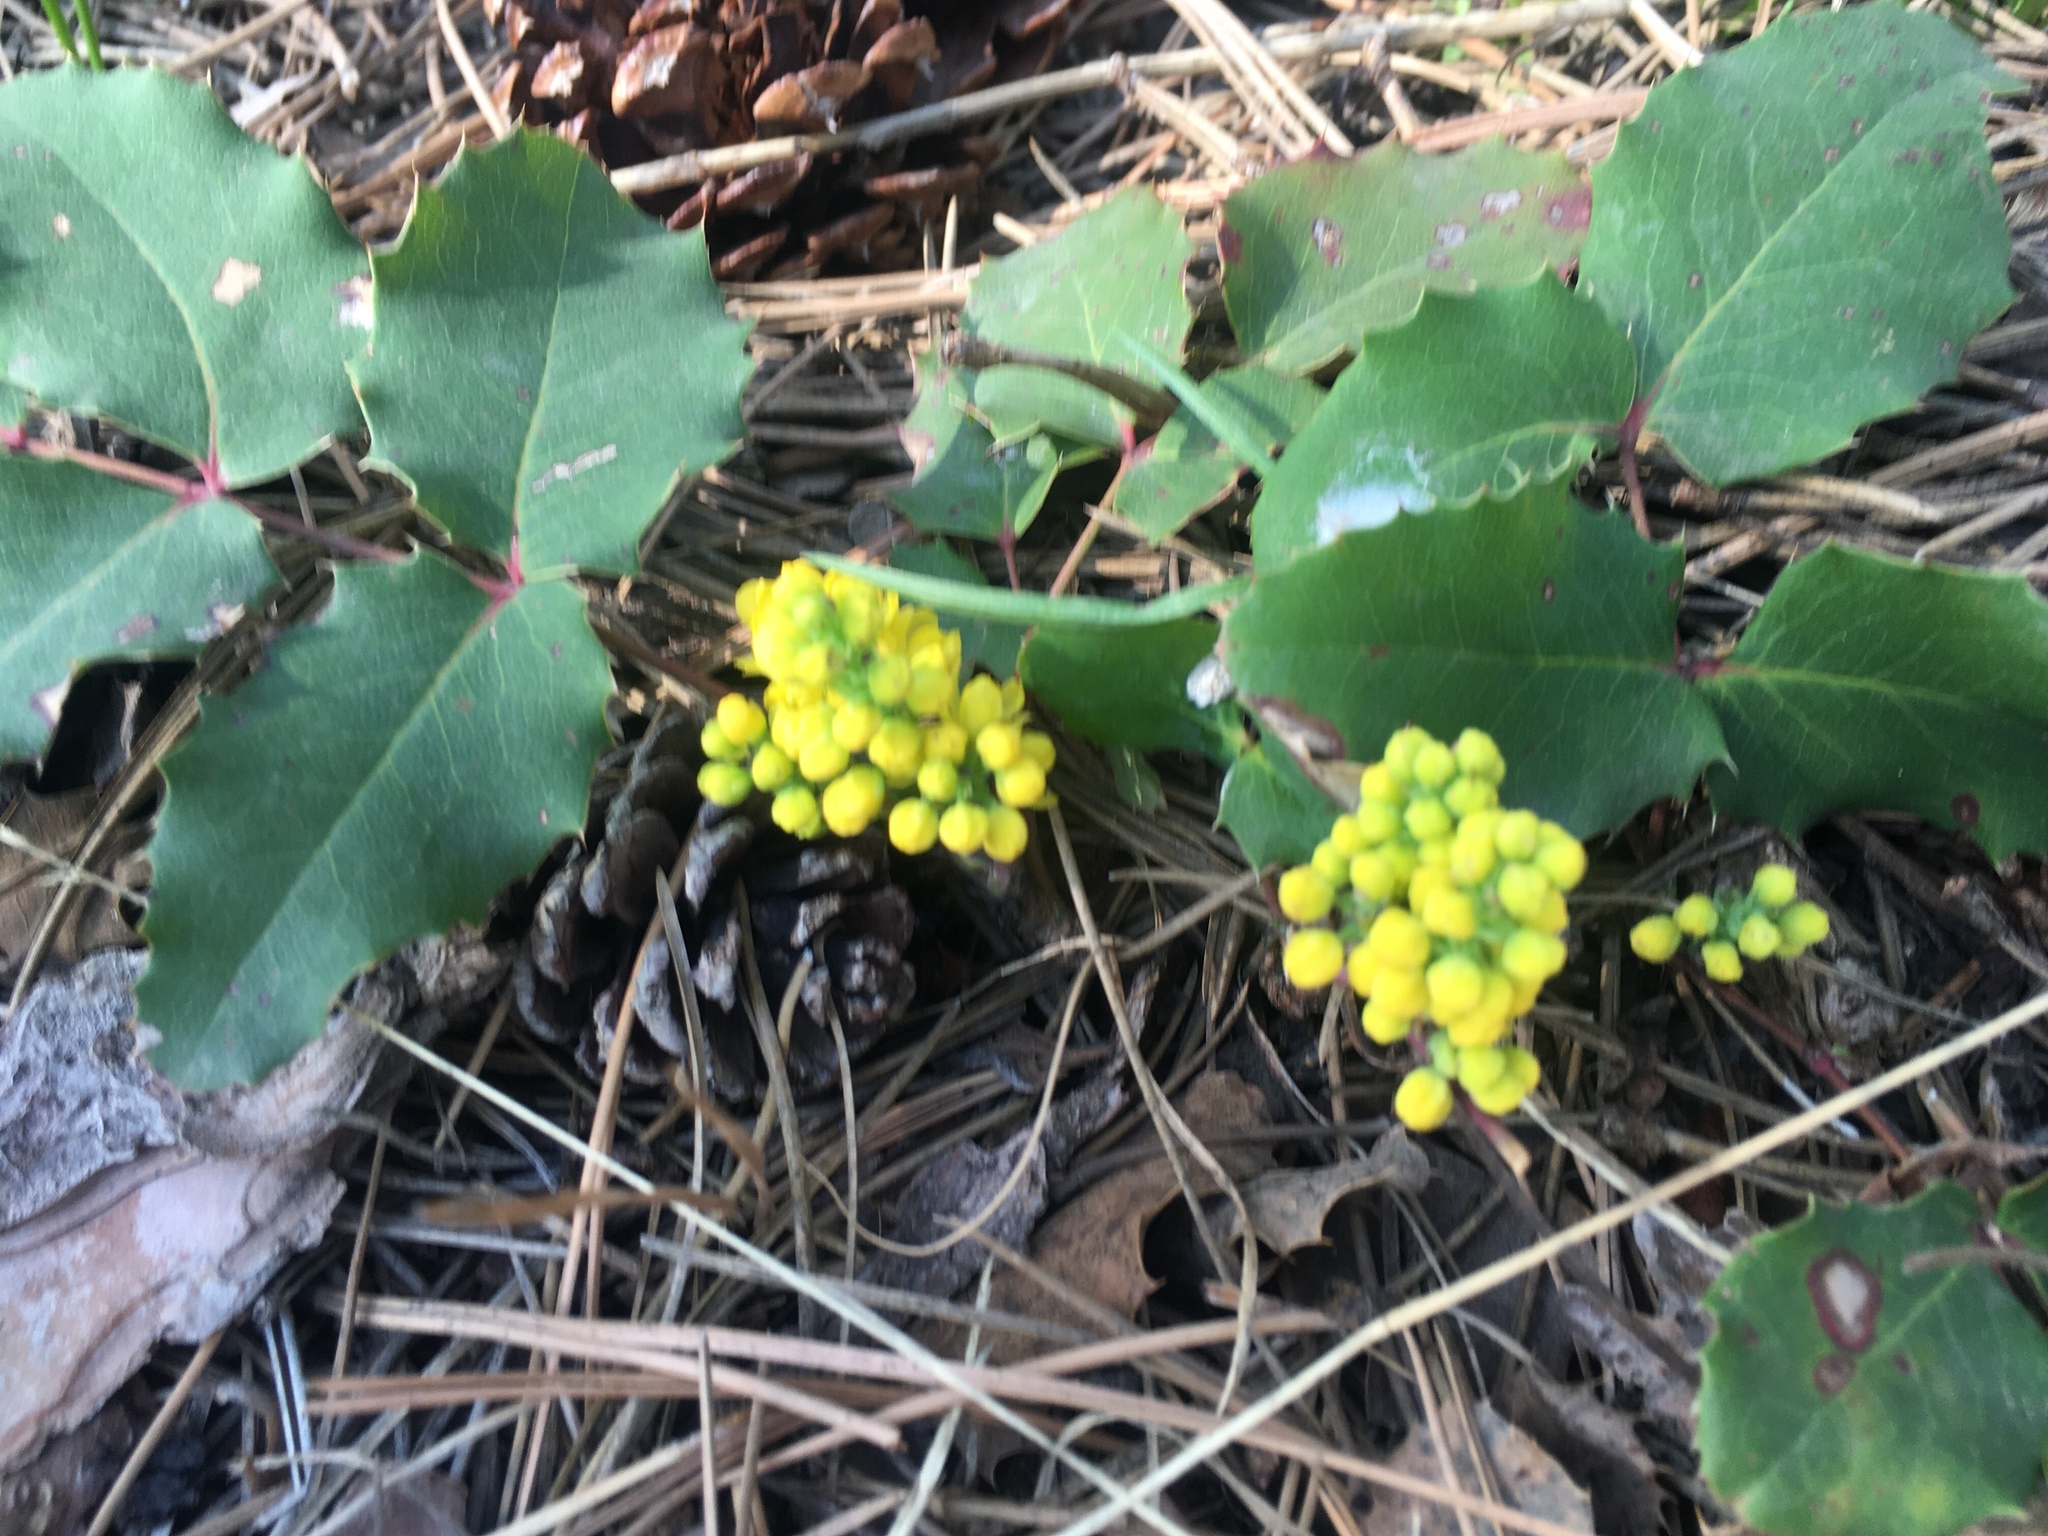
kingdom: Plantae
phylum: Tracheophyta
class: Magnoliopsida
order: Ranunculales
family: Berberidaceae
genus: Mahonia
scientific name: Mahonia repens
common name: Creeping oregon-grape
